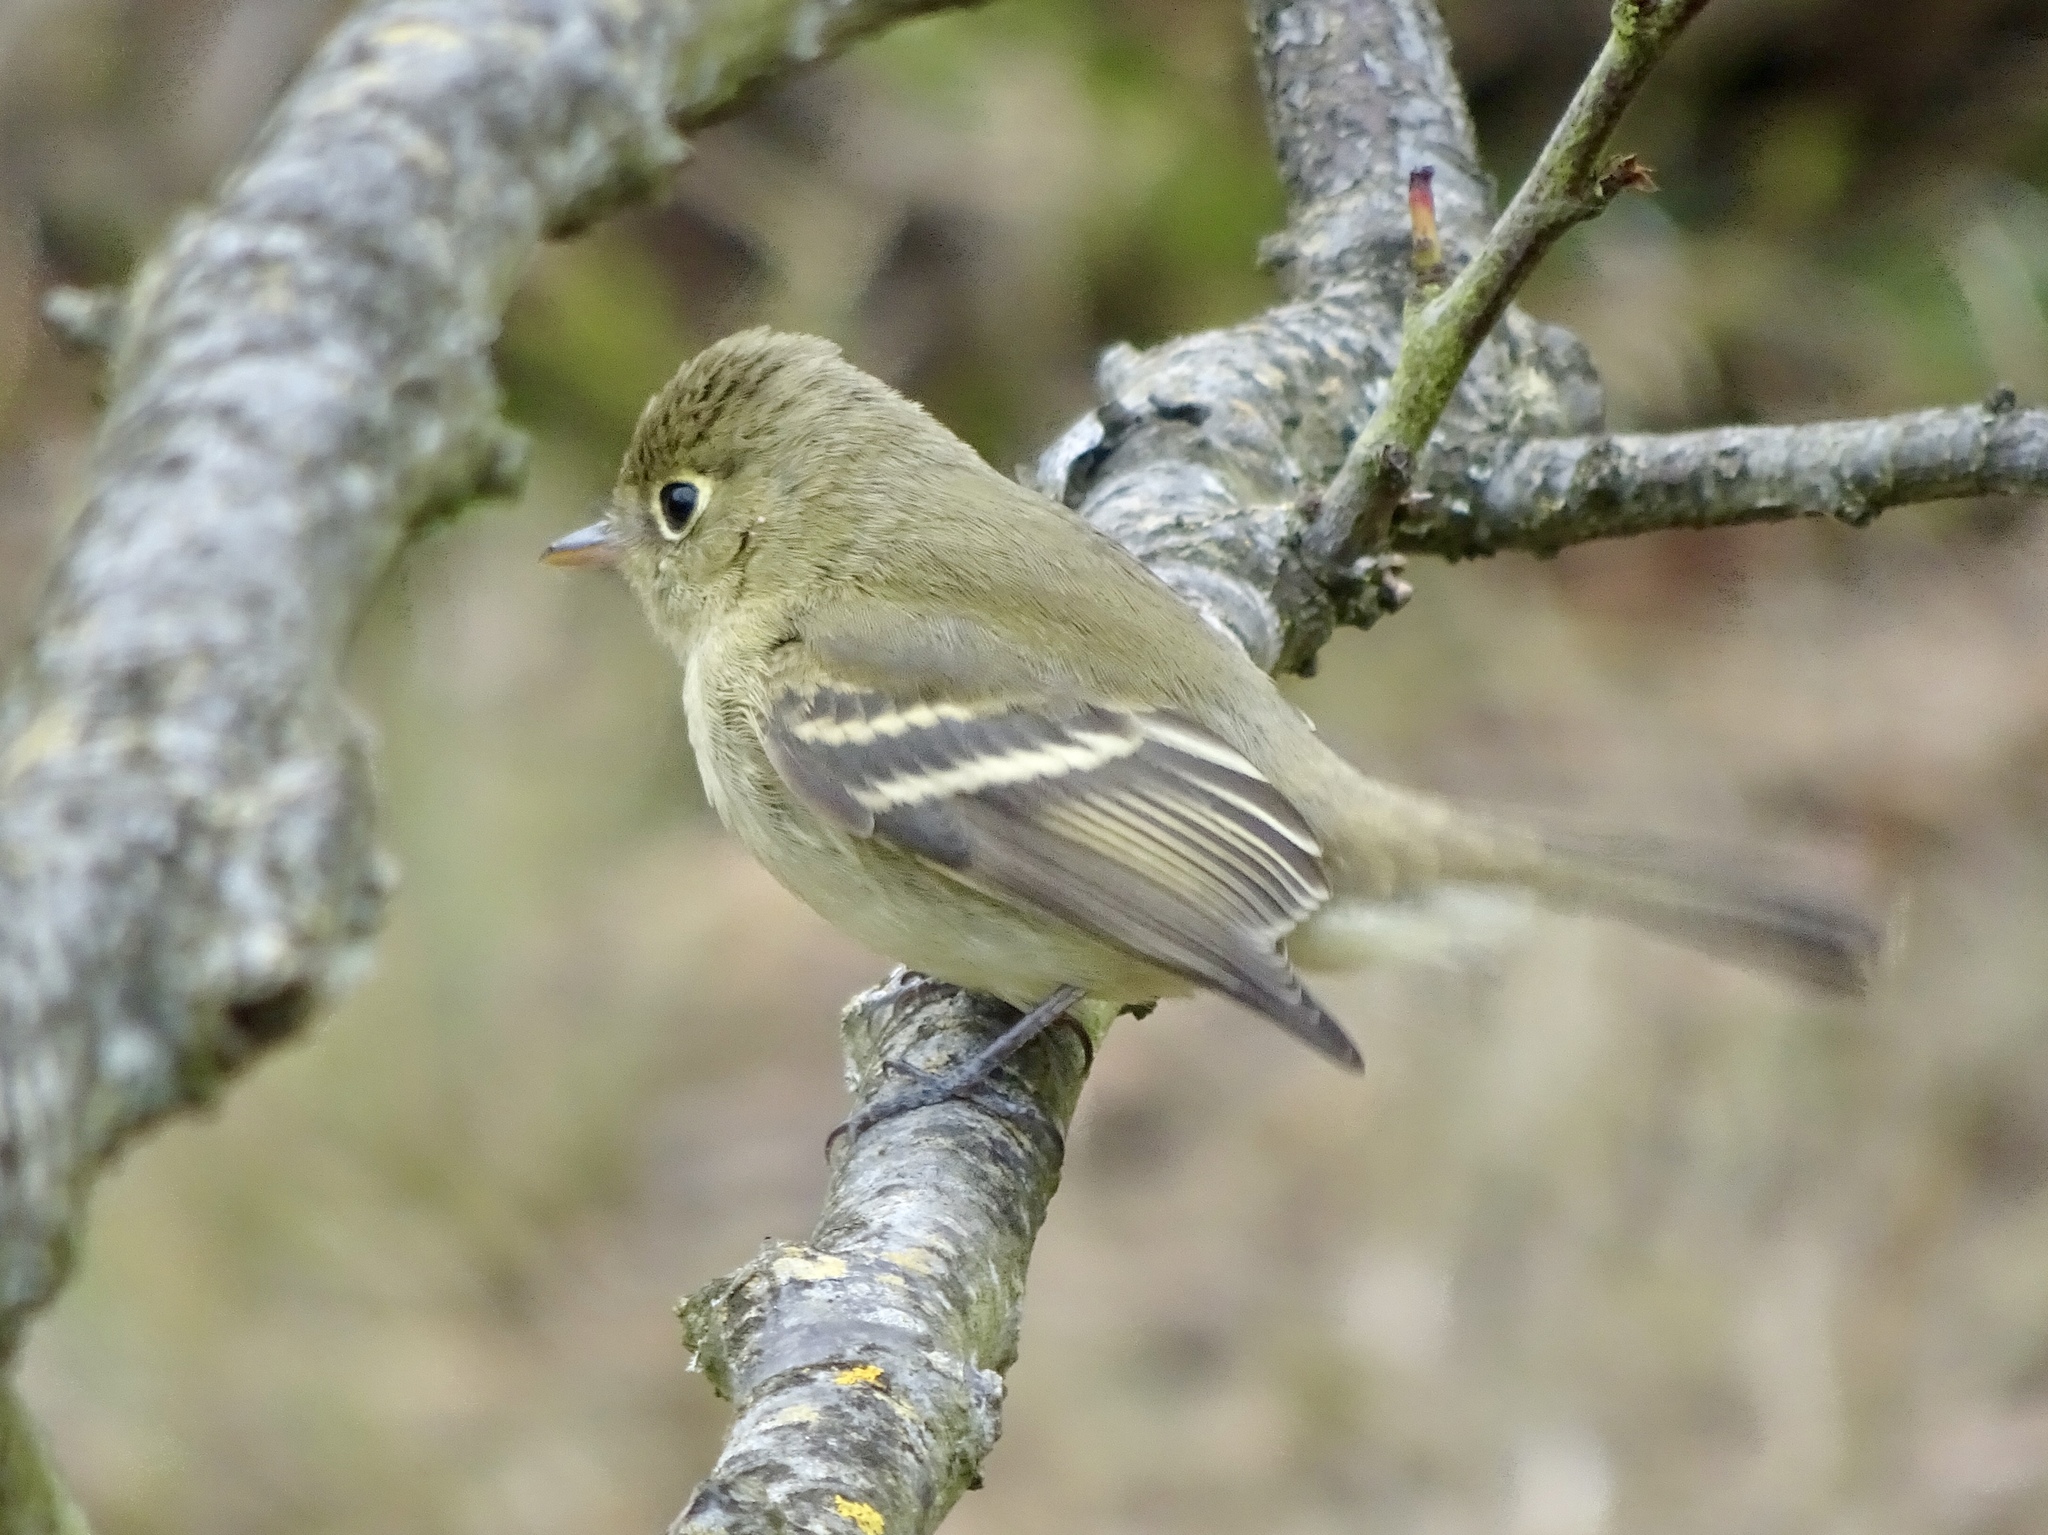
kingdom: Animalia
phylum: Chordata
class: Aves
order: Passeriformes
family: Tyrannidae
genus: Empidonax
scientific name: Empidonax difficilis
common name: Pacific-slope flycatcher
